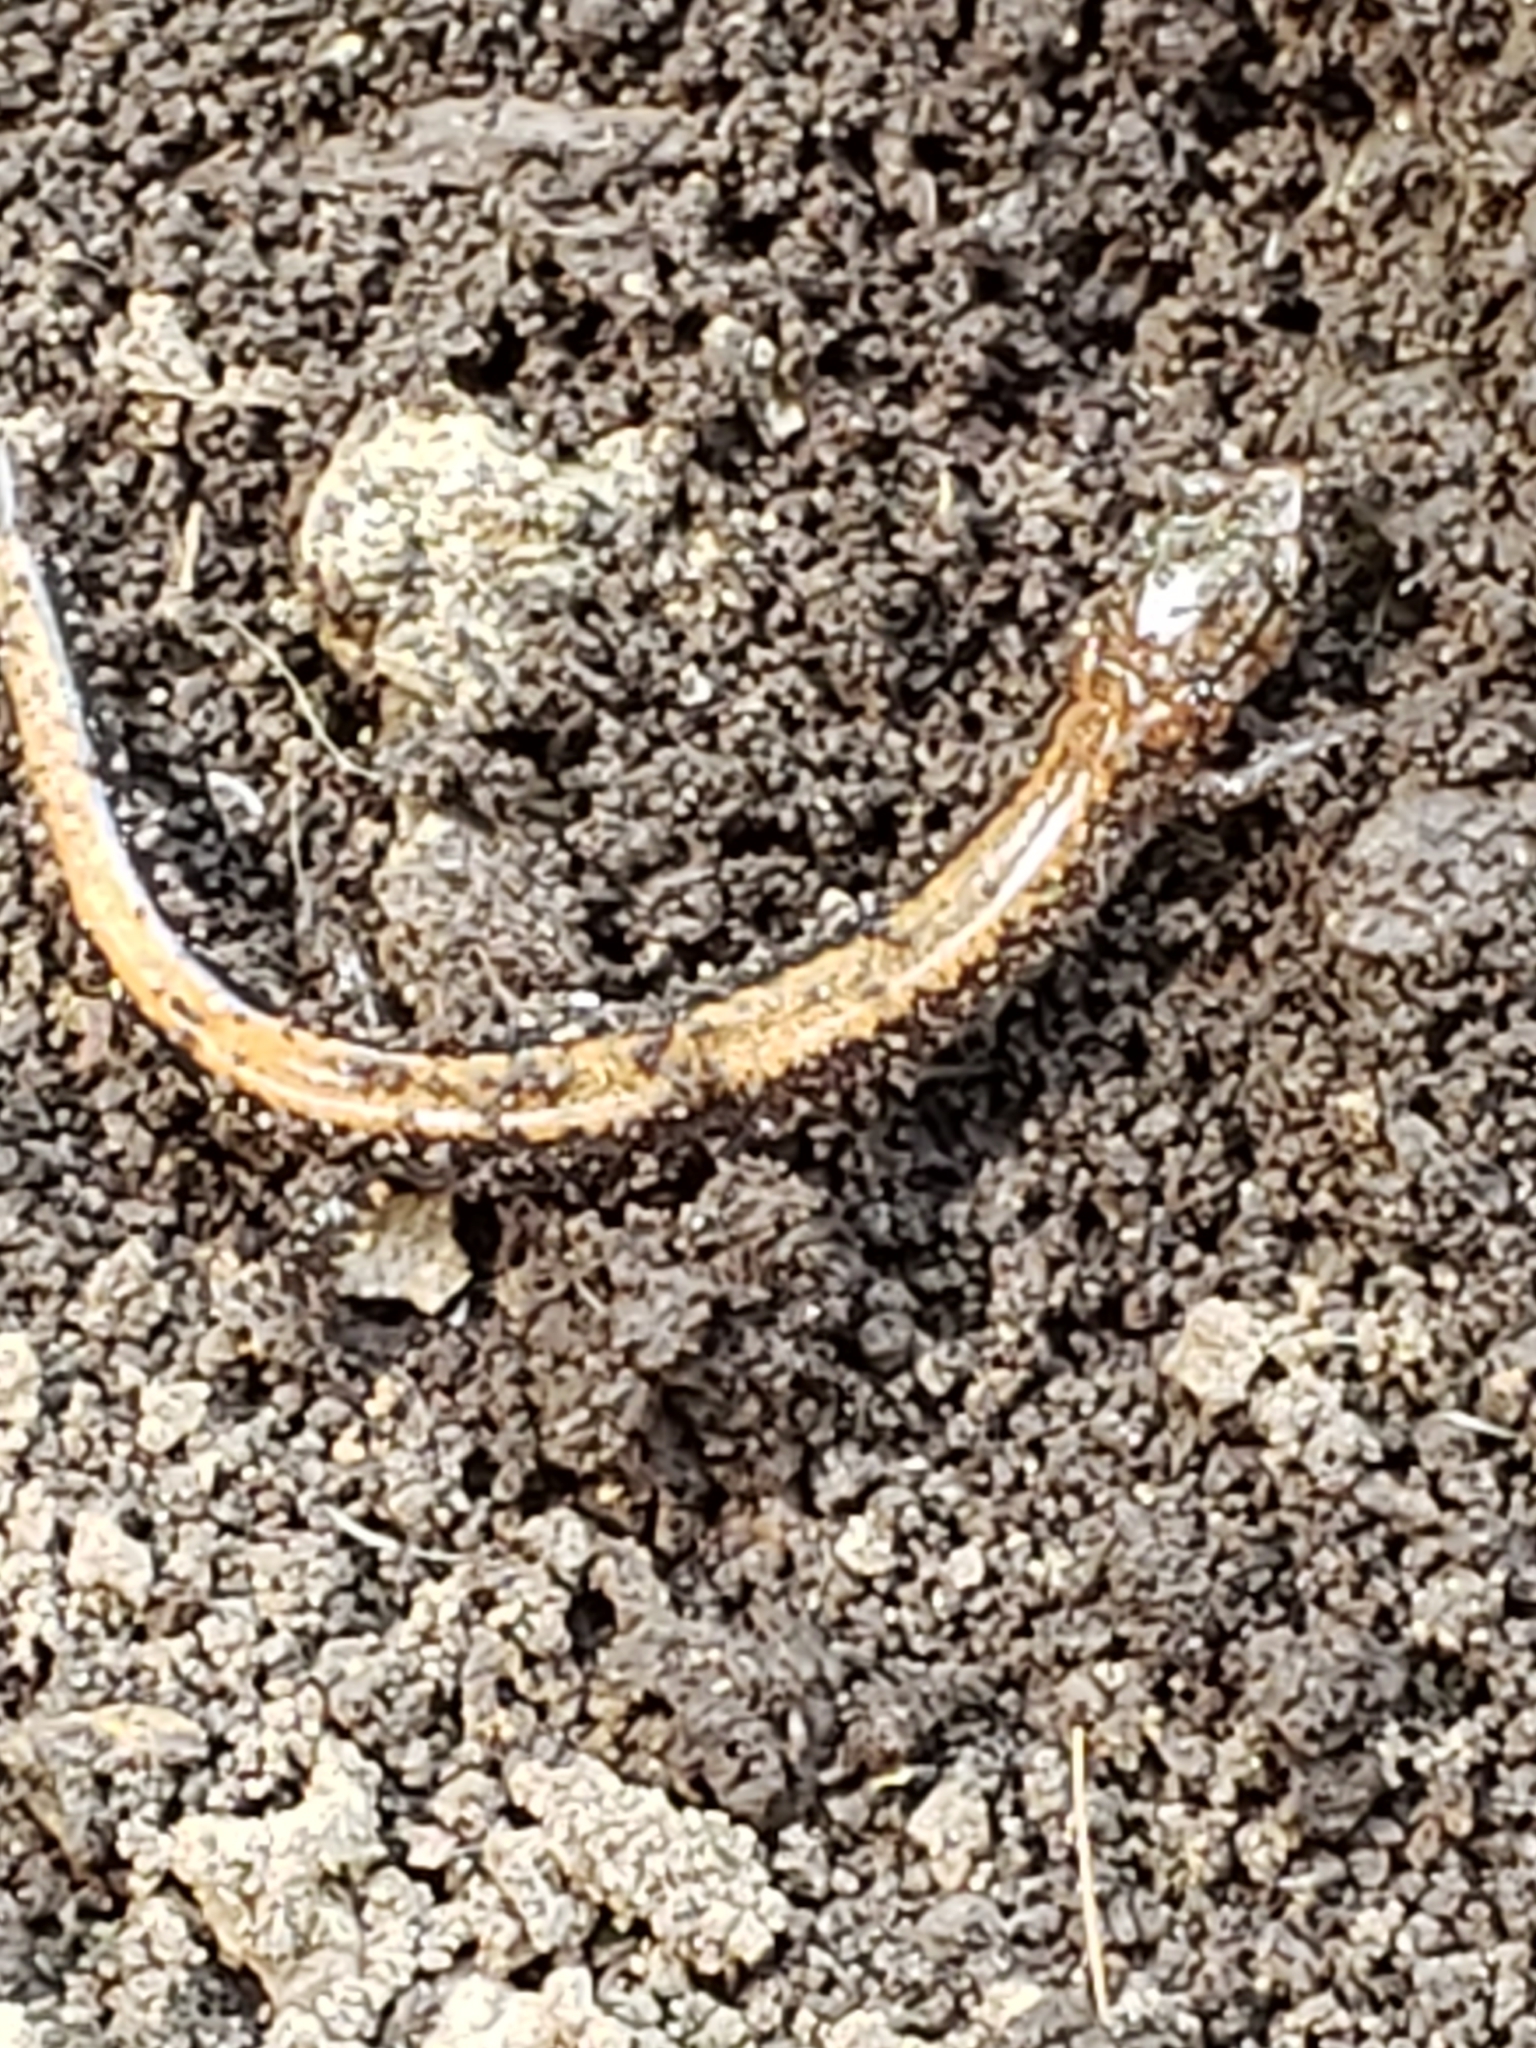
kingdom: Animalia
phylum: Chordata
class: Amphibia
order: Caudata
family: Plethodontidae
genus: Plethodon
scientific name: Plethodon cinereus
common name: Redback salamander
